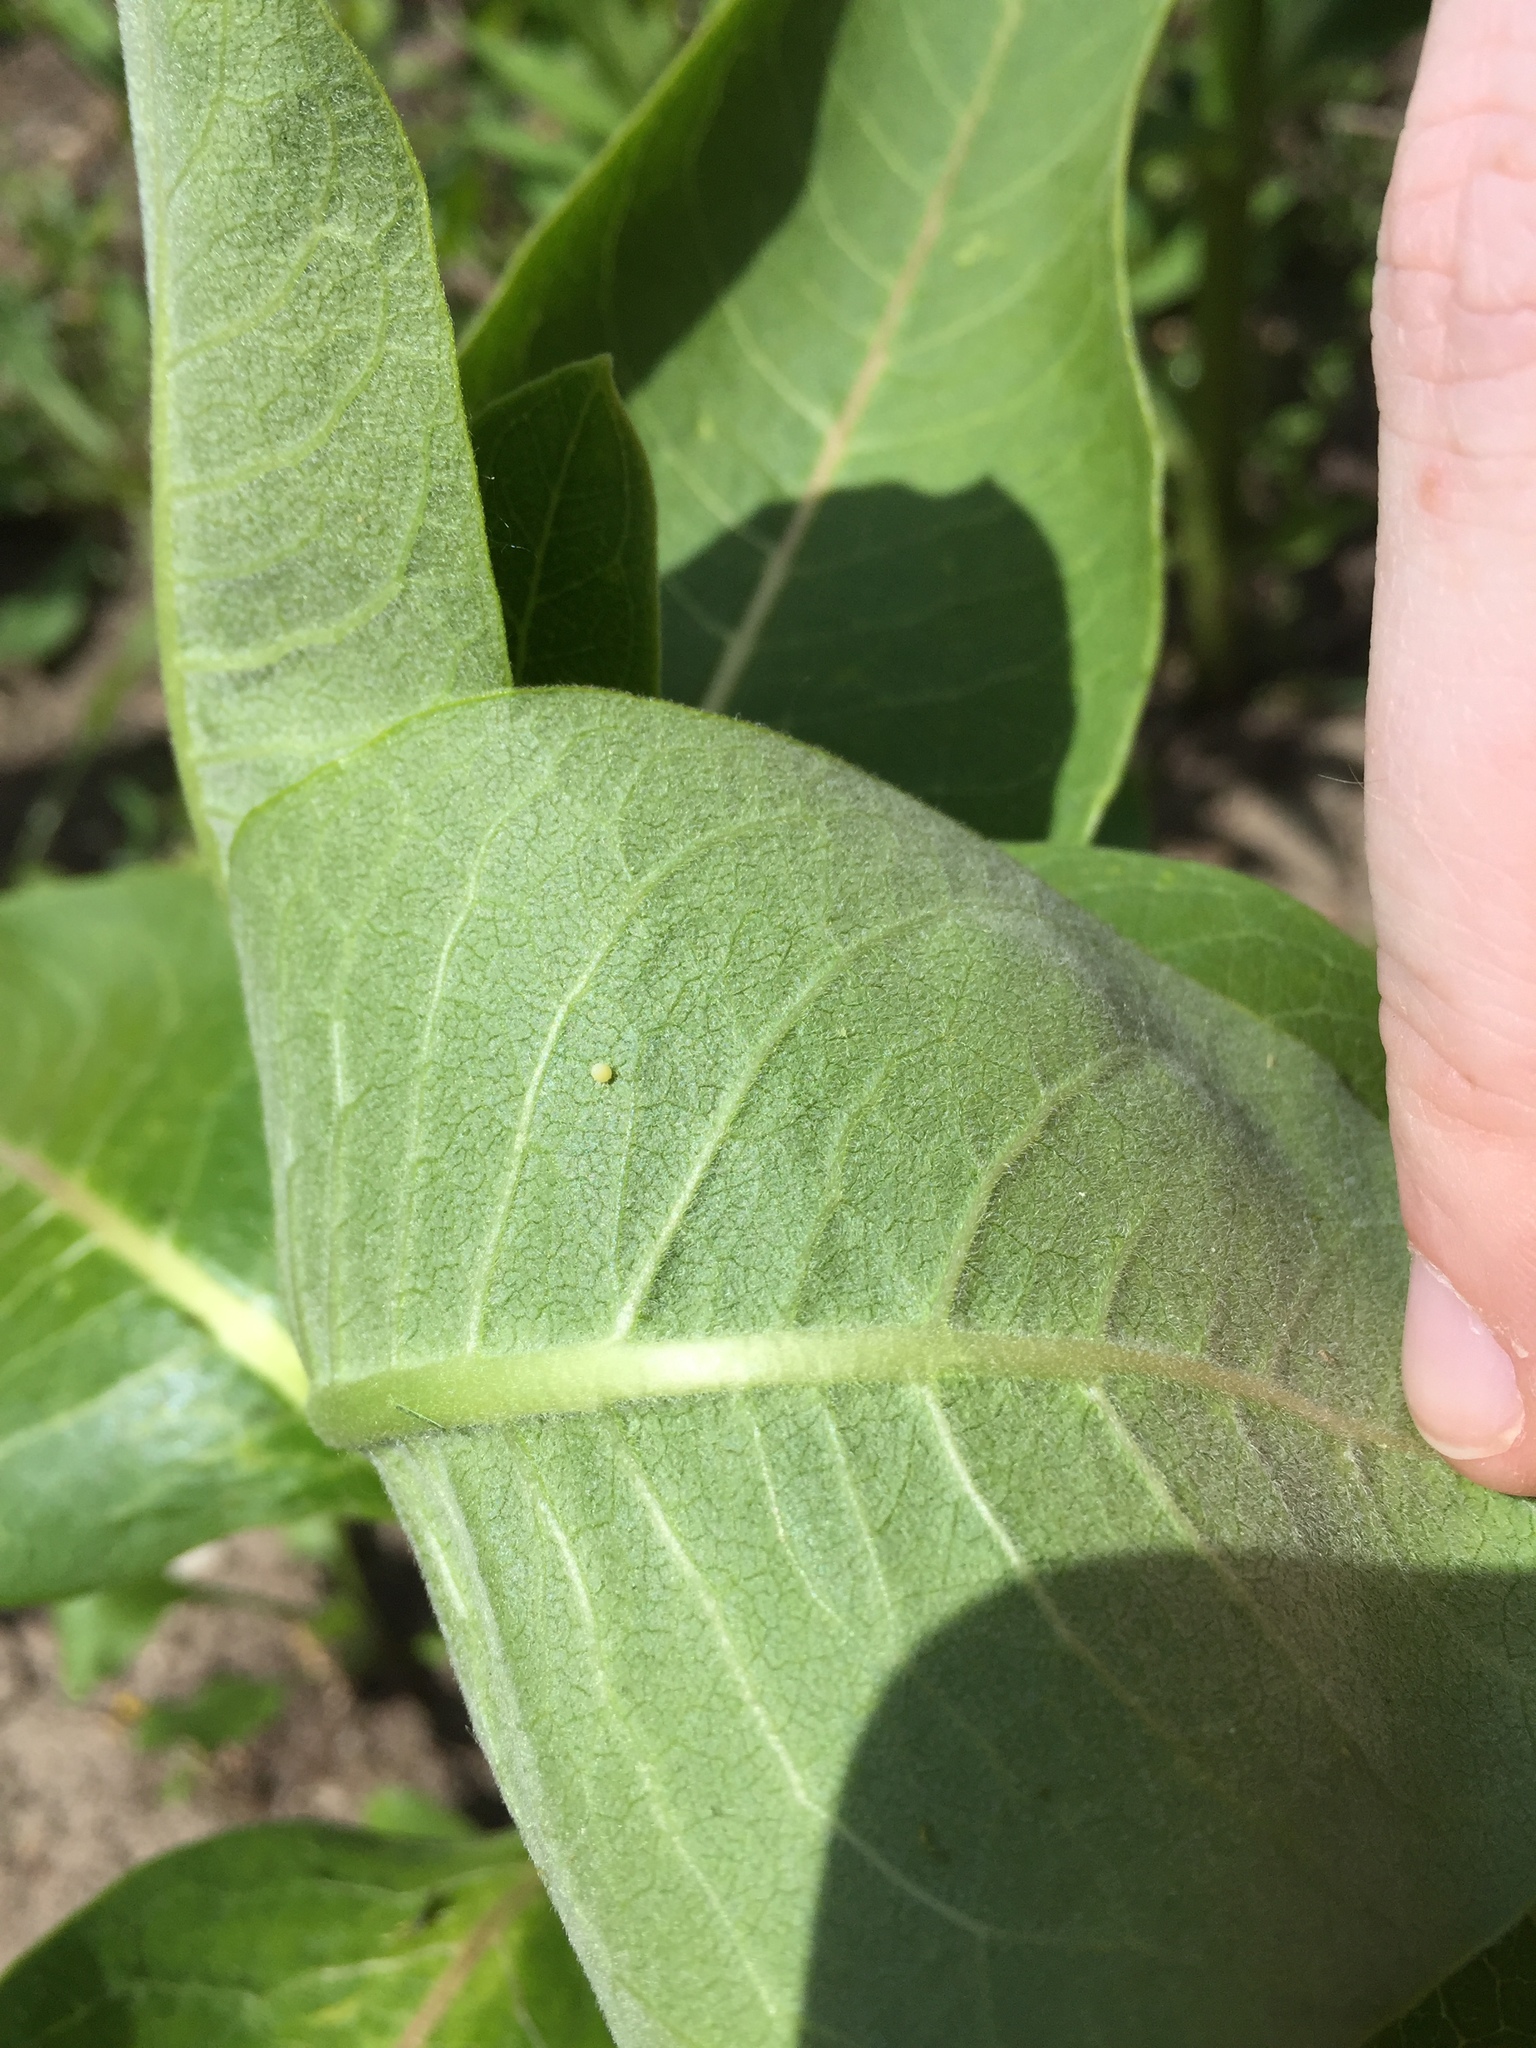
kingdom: Animalia
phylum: Arthropoda
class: Insecta
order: Lepidoptera
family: Nymphalidae
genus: Danaus
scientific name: Danaus plexippus
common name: Monarch
